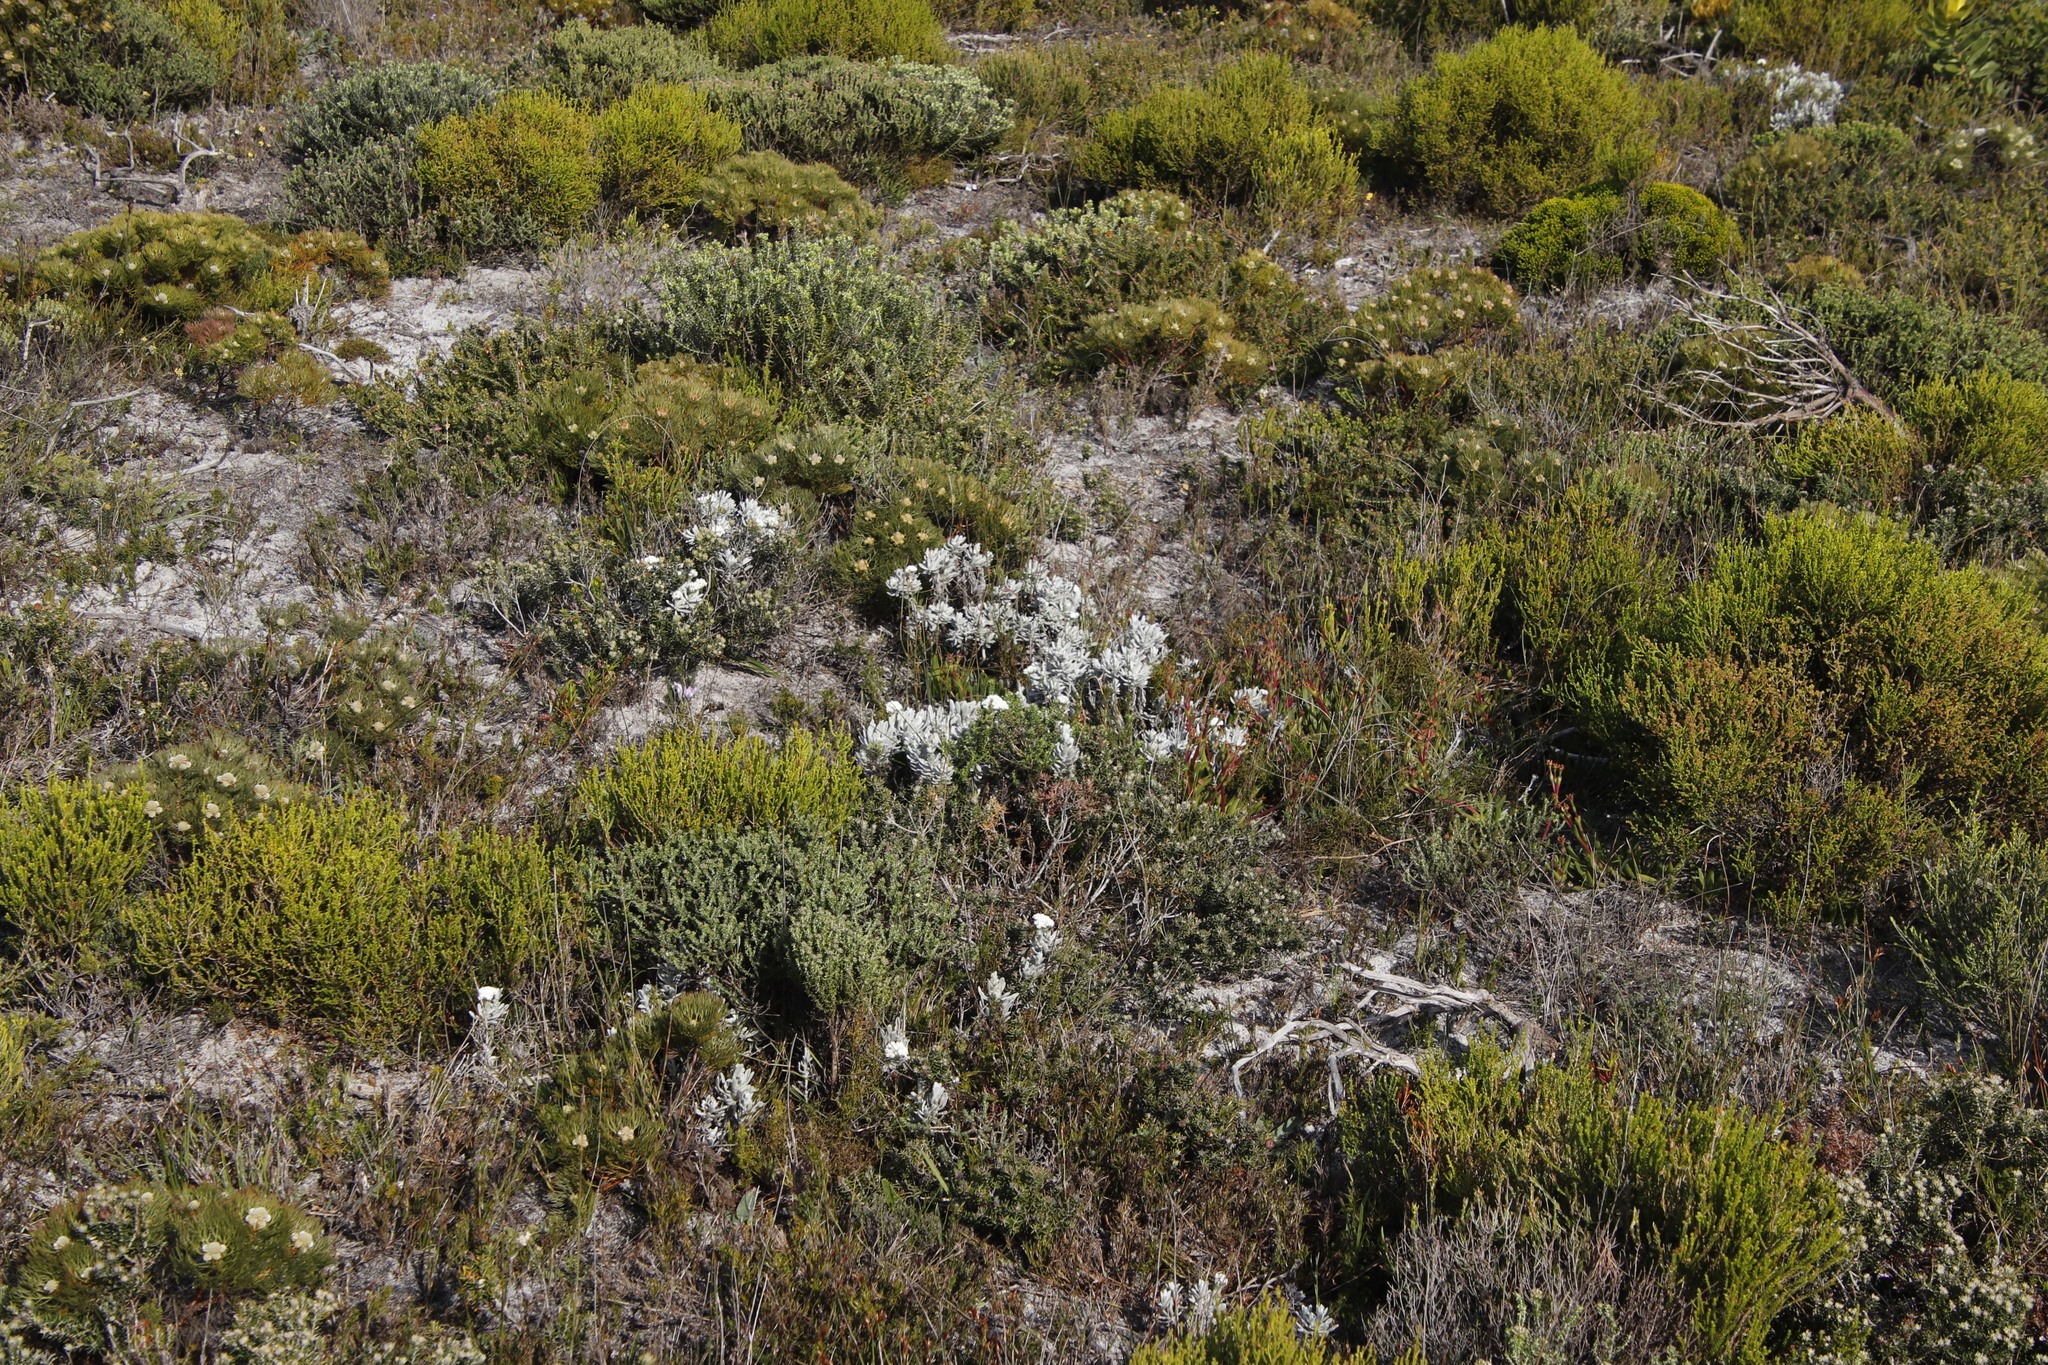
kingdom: Plantae
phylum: Tracheophyta
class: Magnoliopsida
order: Asterales
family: Asteraceae
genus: Petalacte
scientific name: Petalacte coronata
